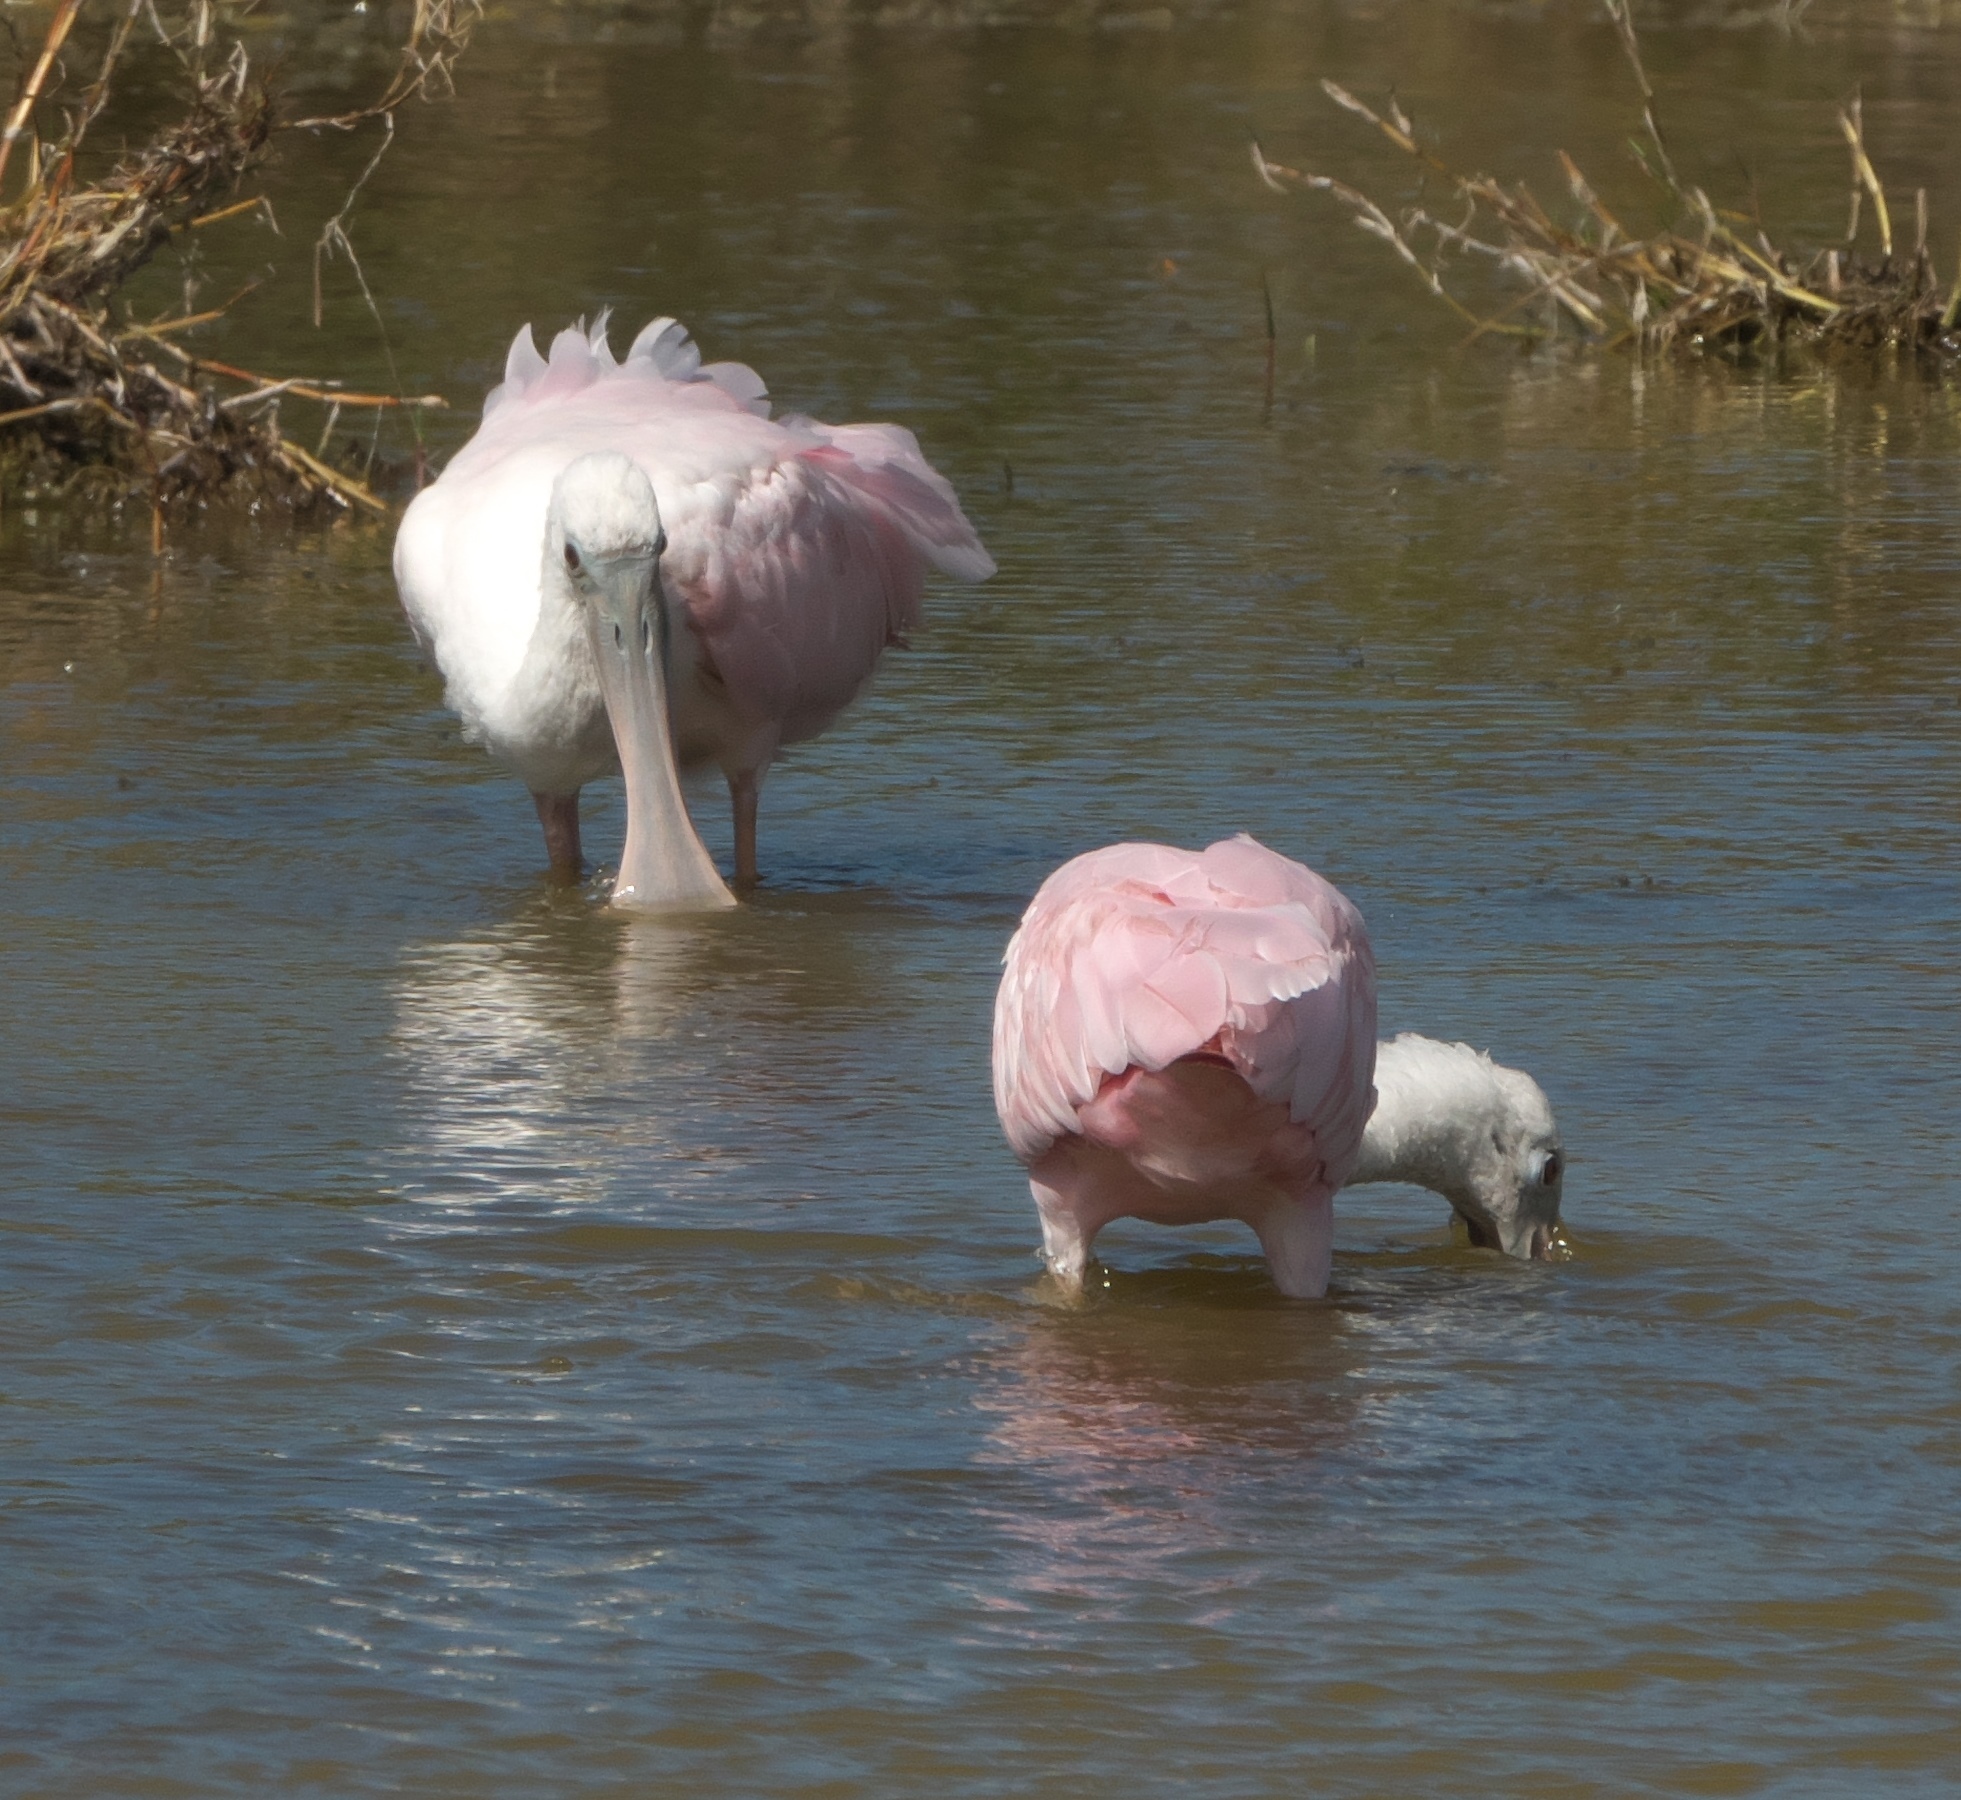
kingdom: Animalia
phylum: Chordata
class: Aves
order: Pelecaniformes
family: Threskiornithidae
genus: Platalea
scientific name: Platalea ajaja
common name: Roseate spoonbill
